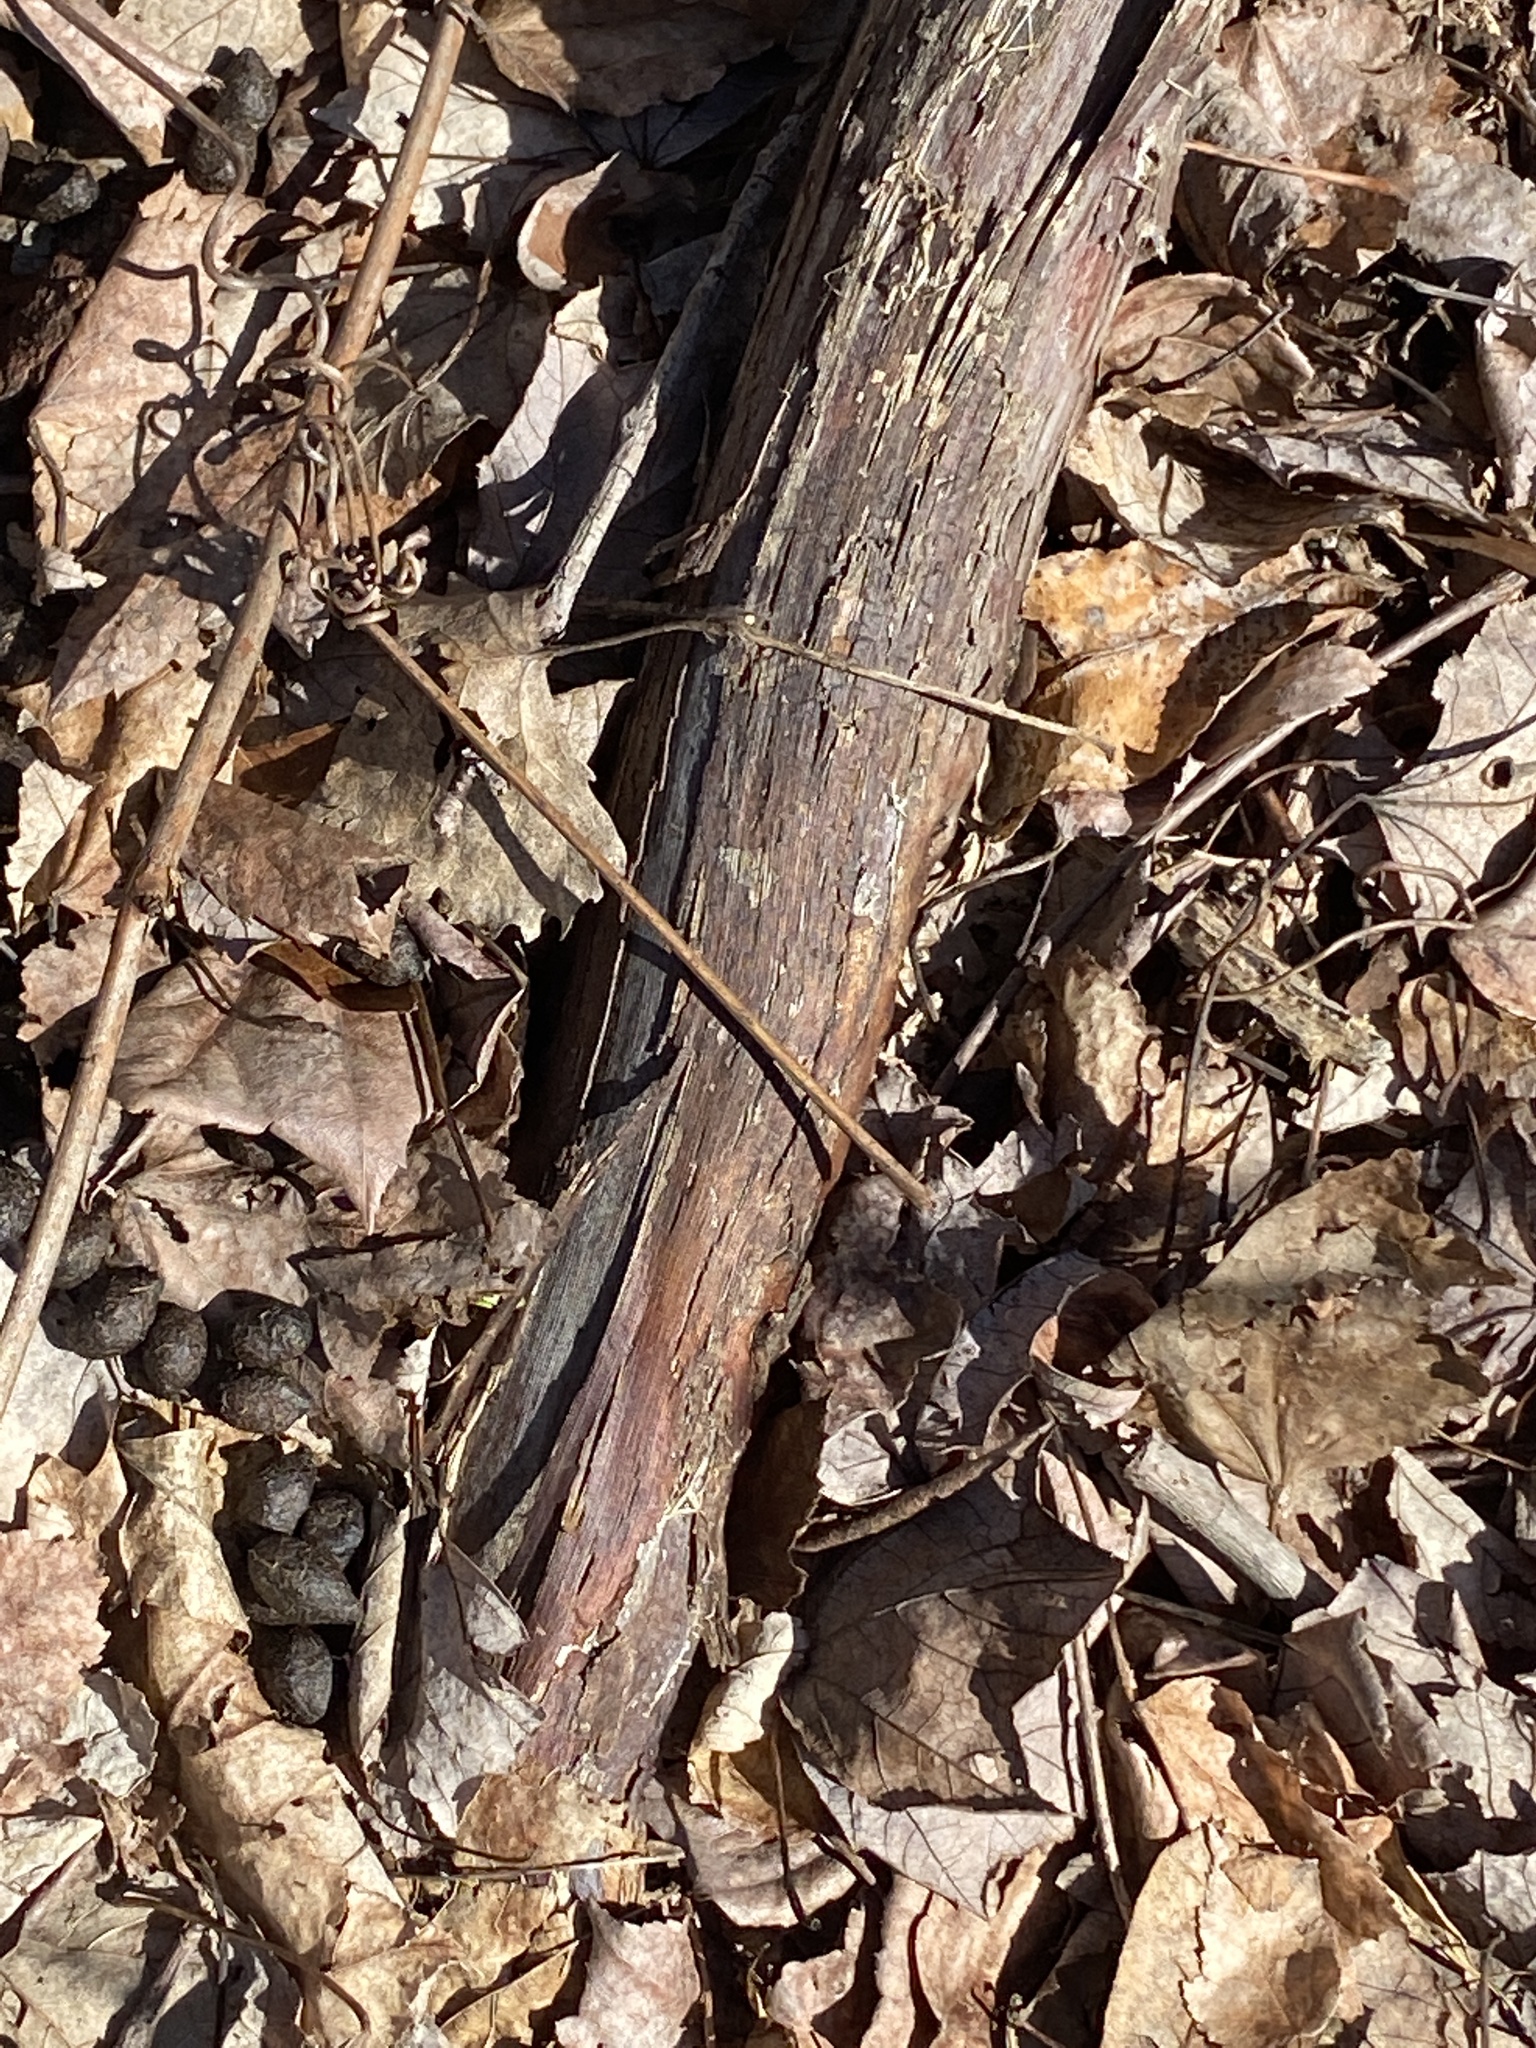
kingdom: Plantae
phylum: Tracheophyta
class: Magnoliopsida
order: Vitales
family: Vitaceae
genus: Vitis
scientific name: Vitis
